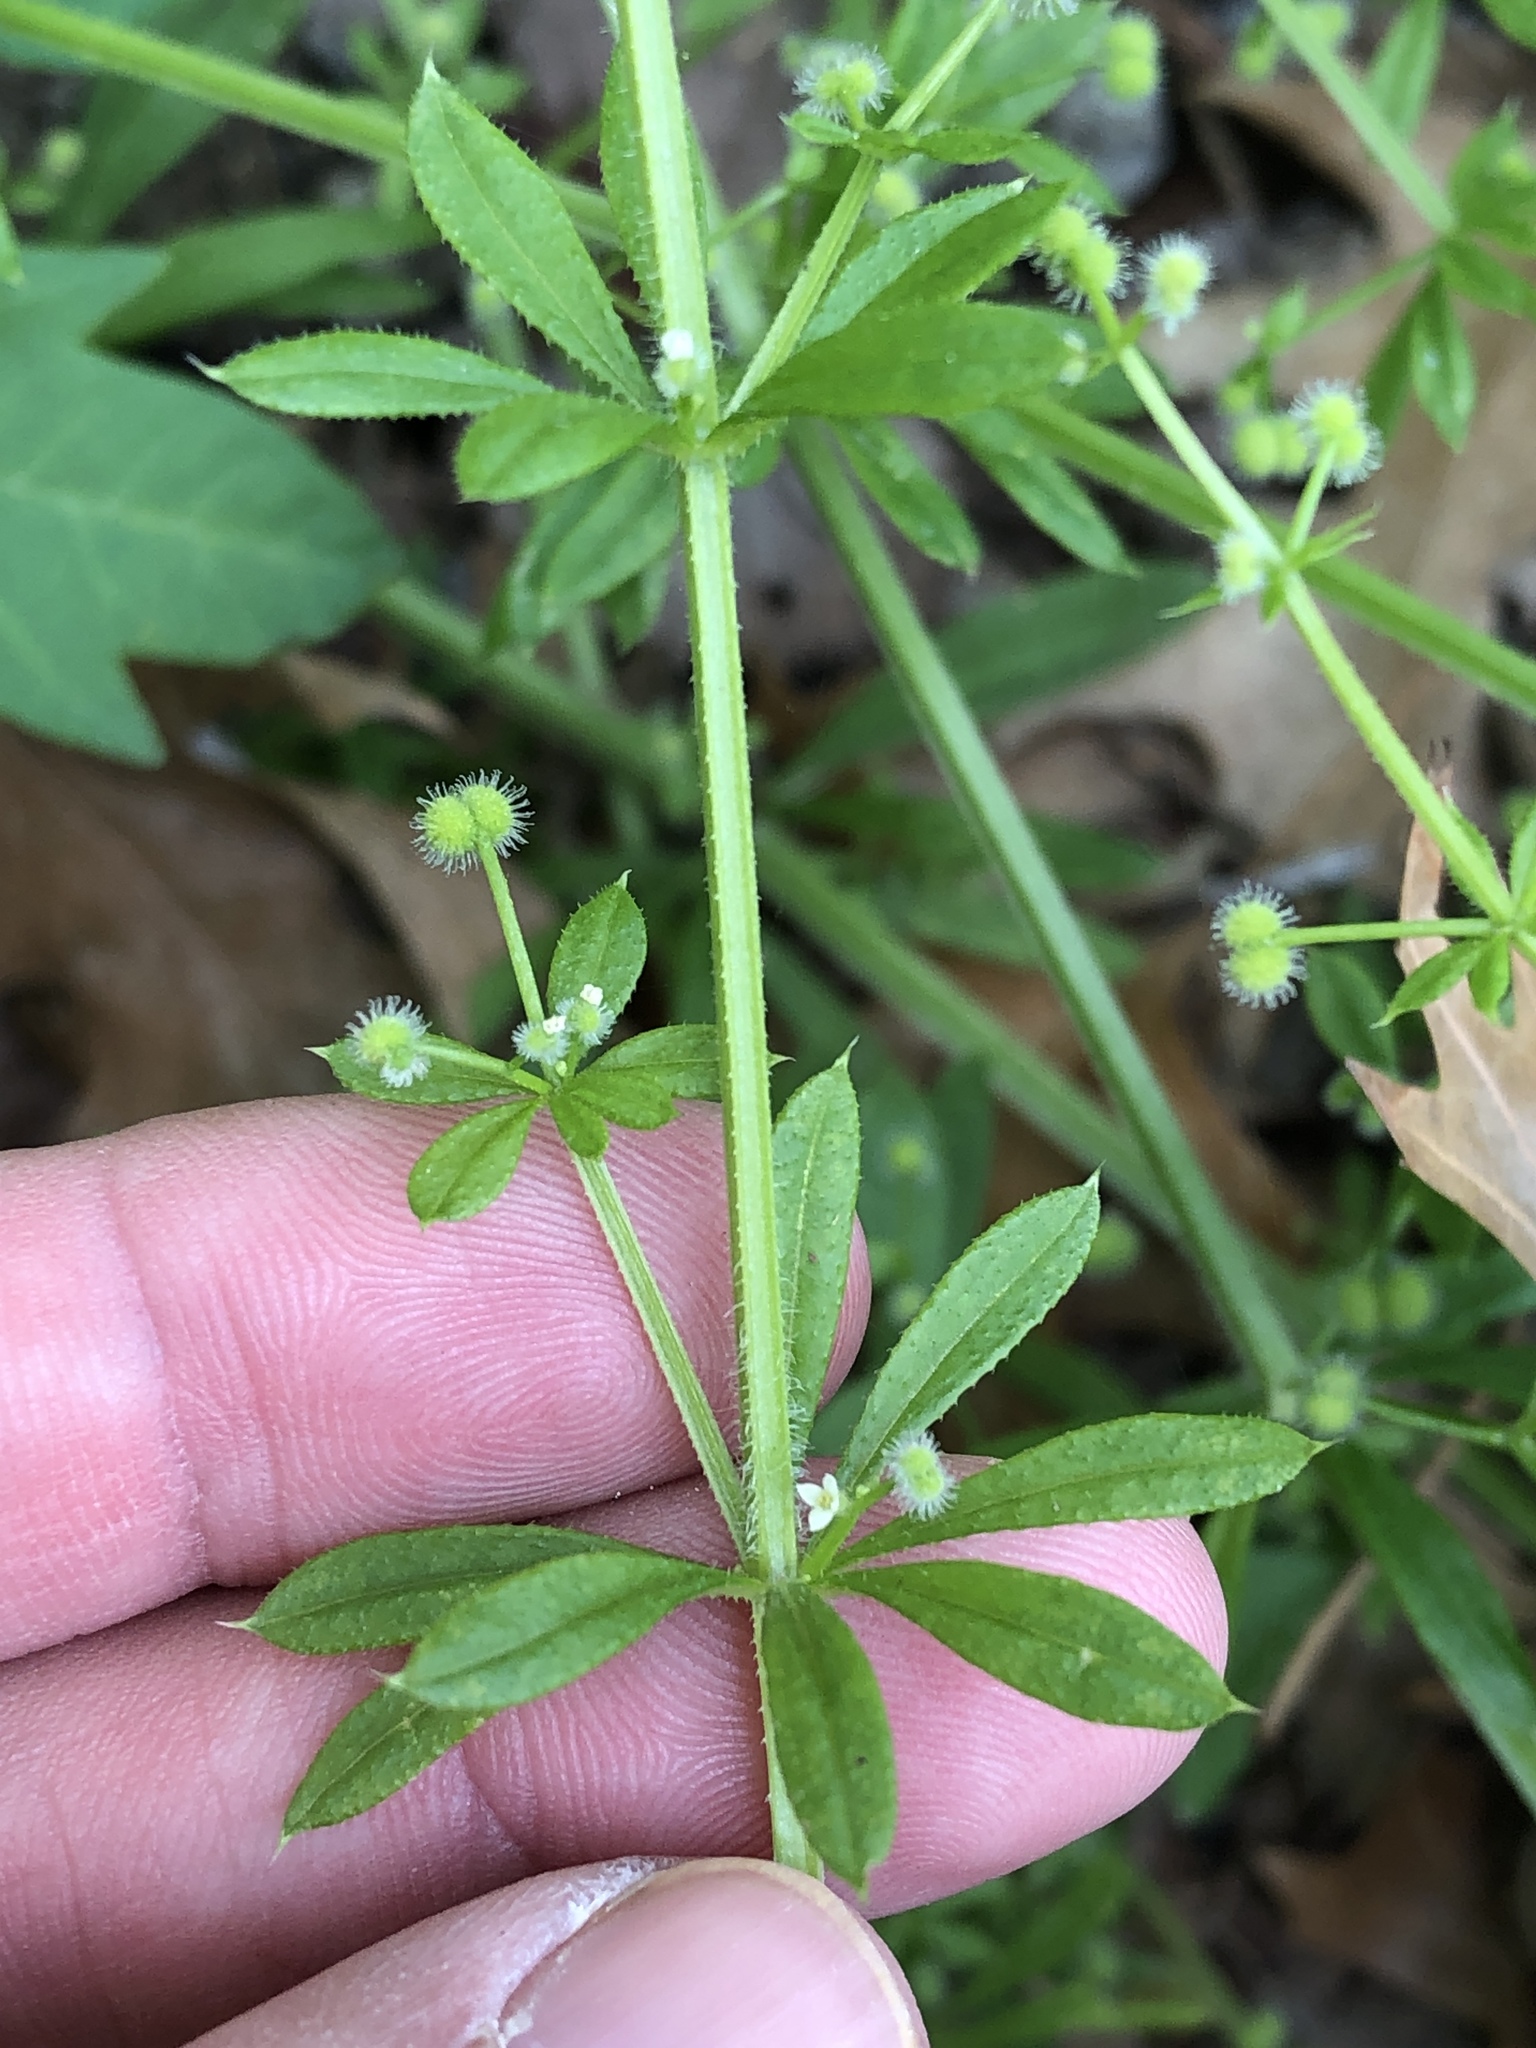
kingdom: Plantae
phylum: Tracheophyta
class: Magnoliopsida
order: Gentianales
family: Rubiaceae
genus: Galium
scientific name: Galium aparine
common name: Cleavers
